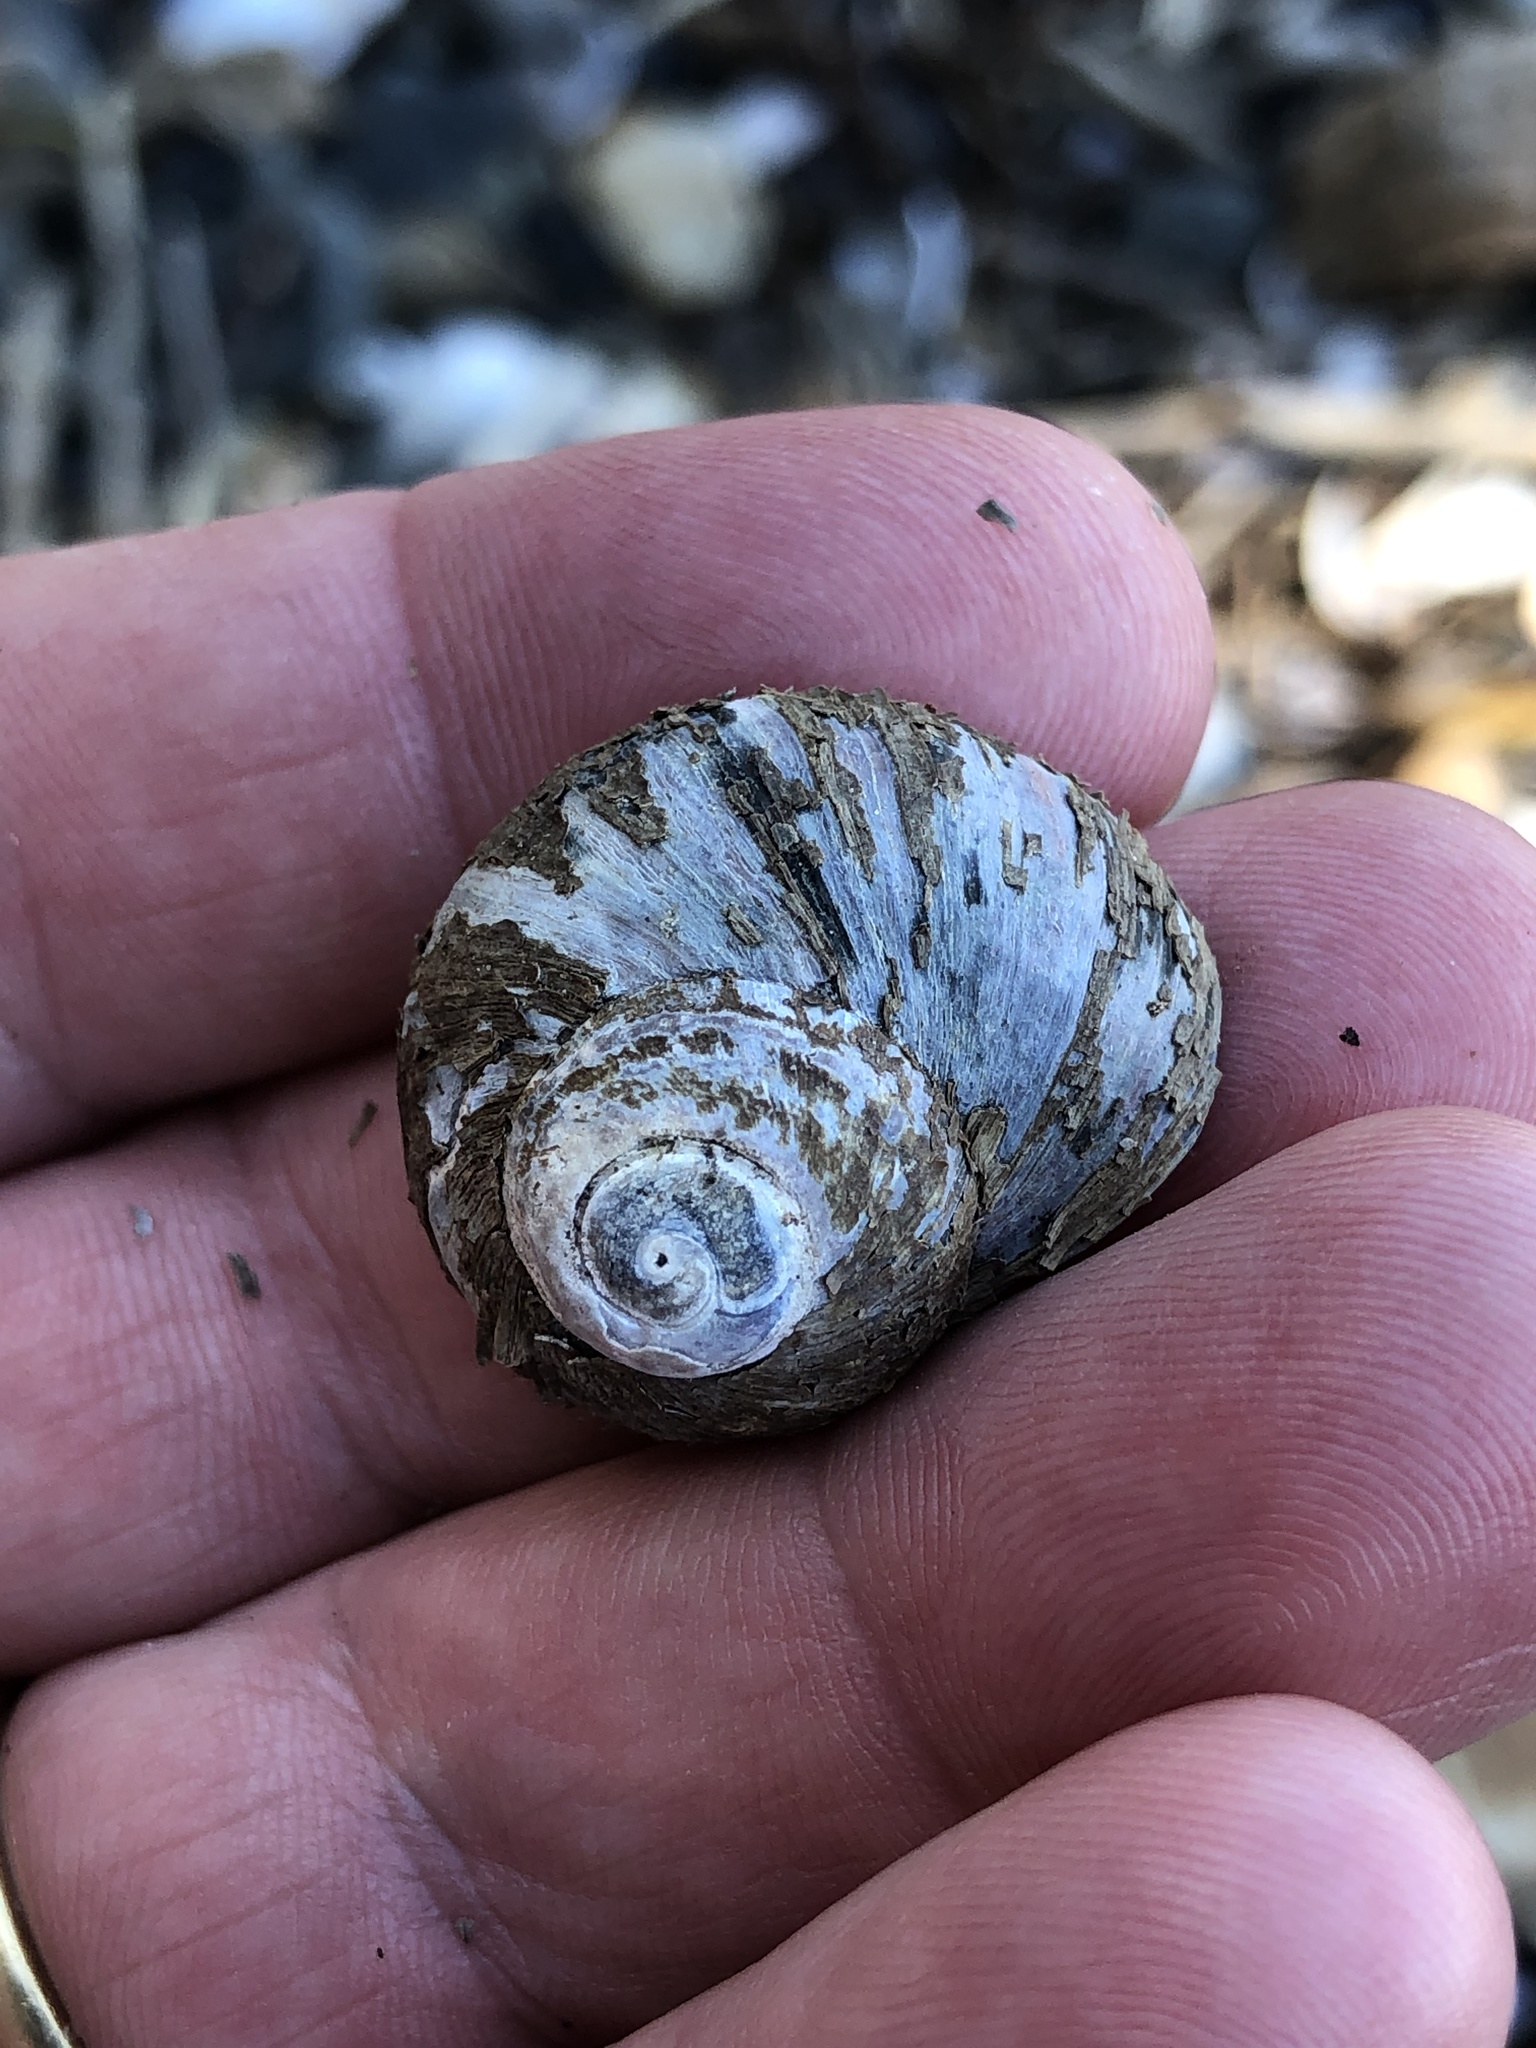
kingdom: Animalia
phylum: Mollusca
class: Gastropoda
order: Trochida
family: Turbinidae
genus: Lunella
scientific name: Lunella smaragda
